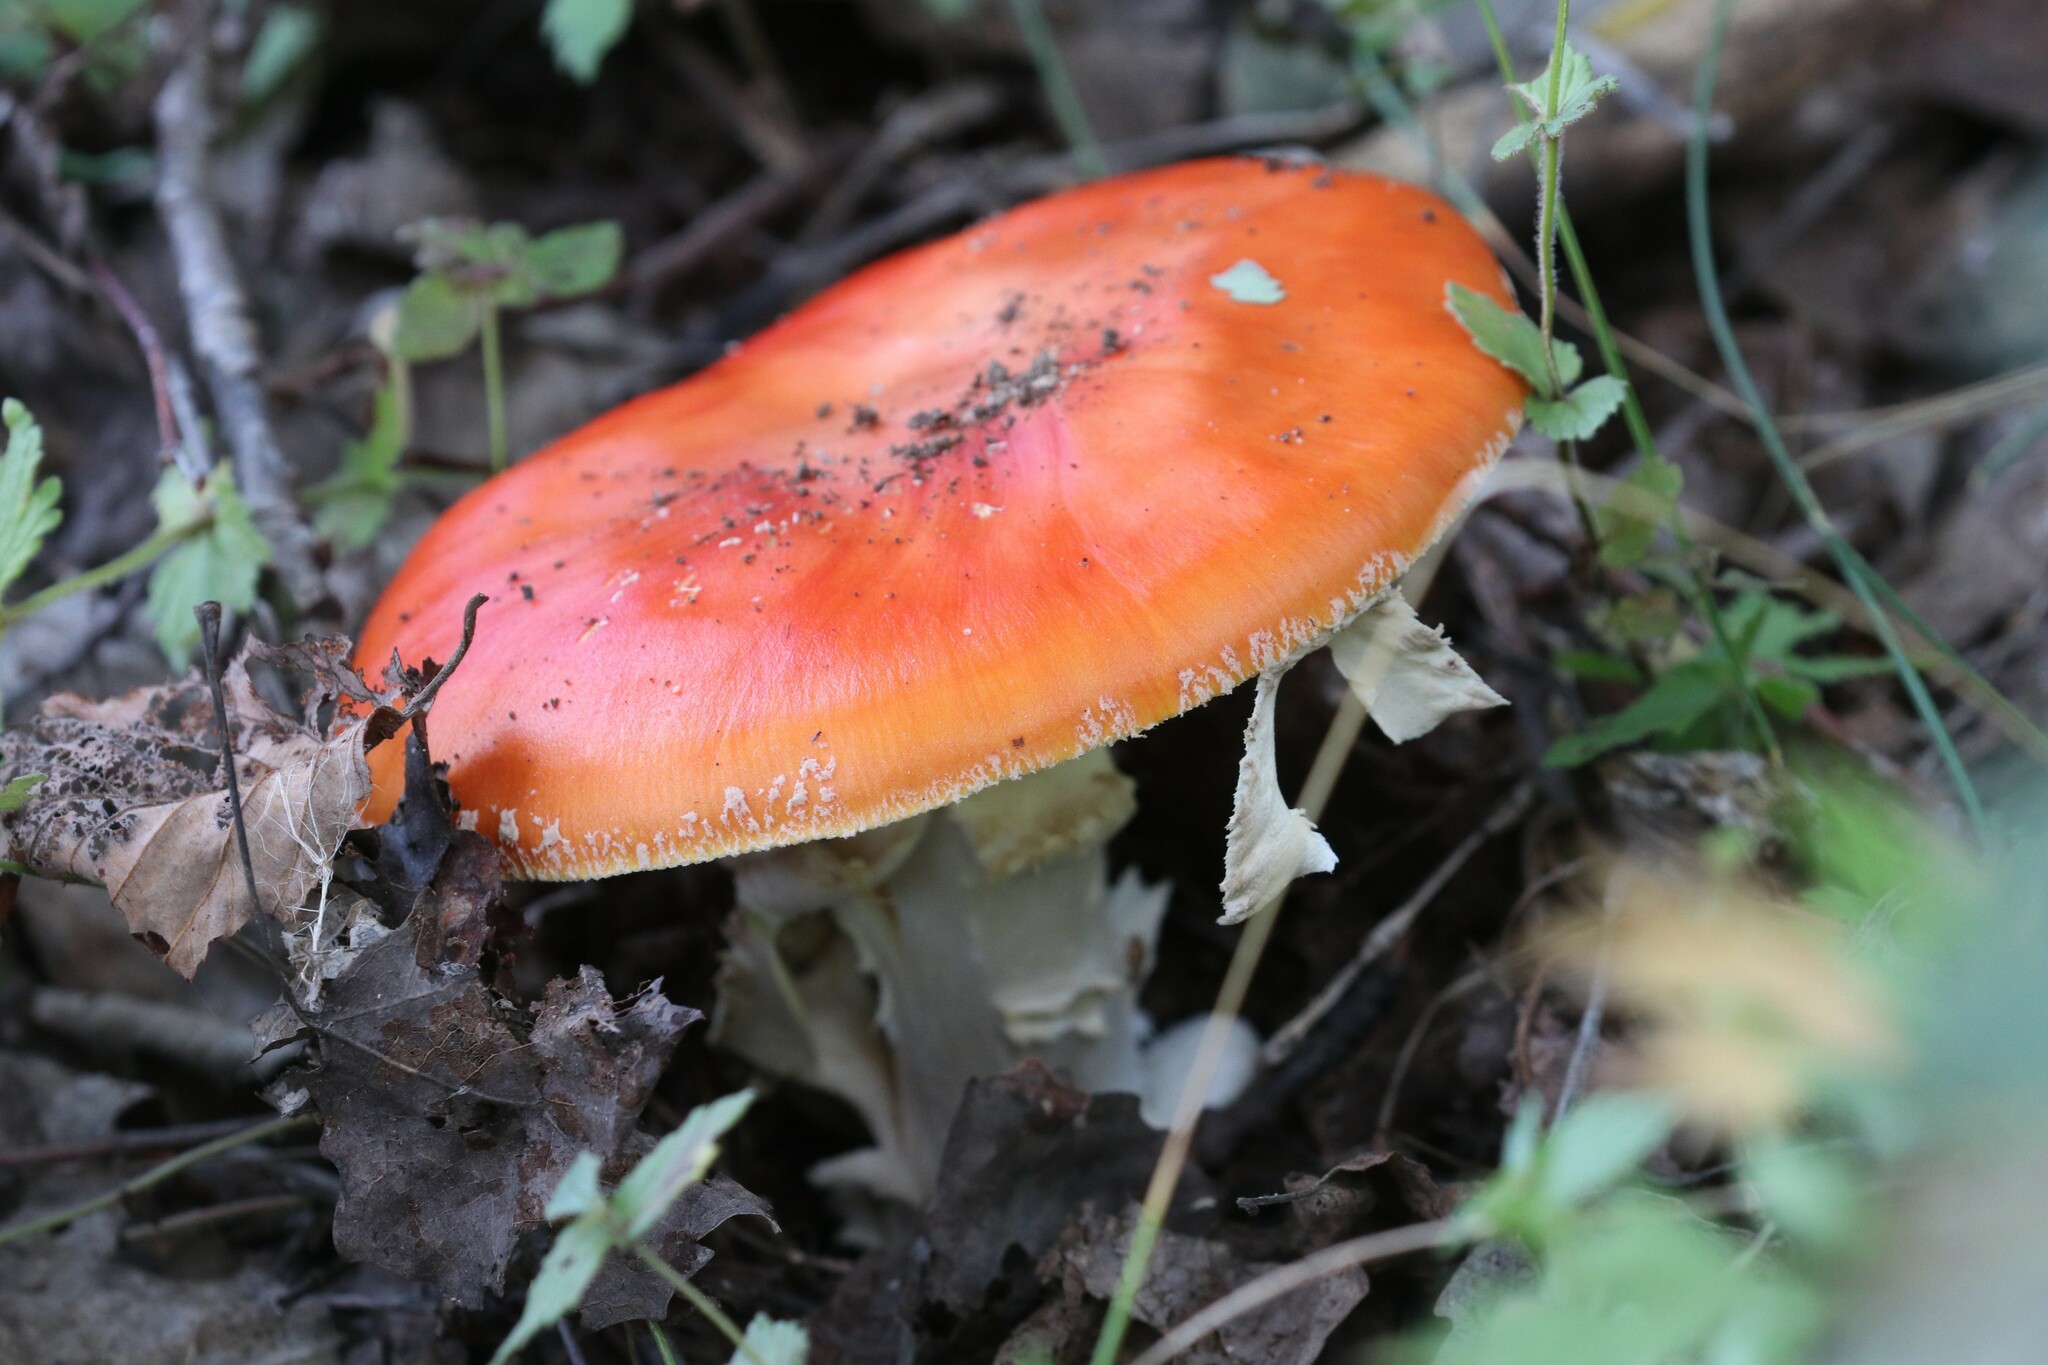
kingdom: Fungi
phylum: Basidiomycota
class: Agaricomycetes
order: Agaricales
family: Amanitaceae
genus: Amanita
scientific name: Amanita muscaria
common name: Fly agaric
